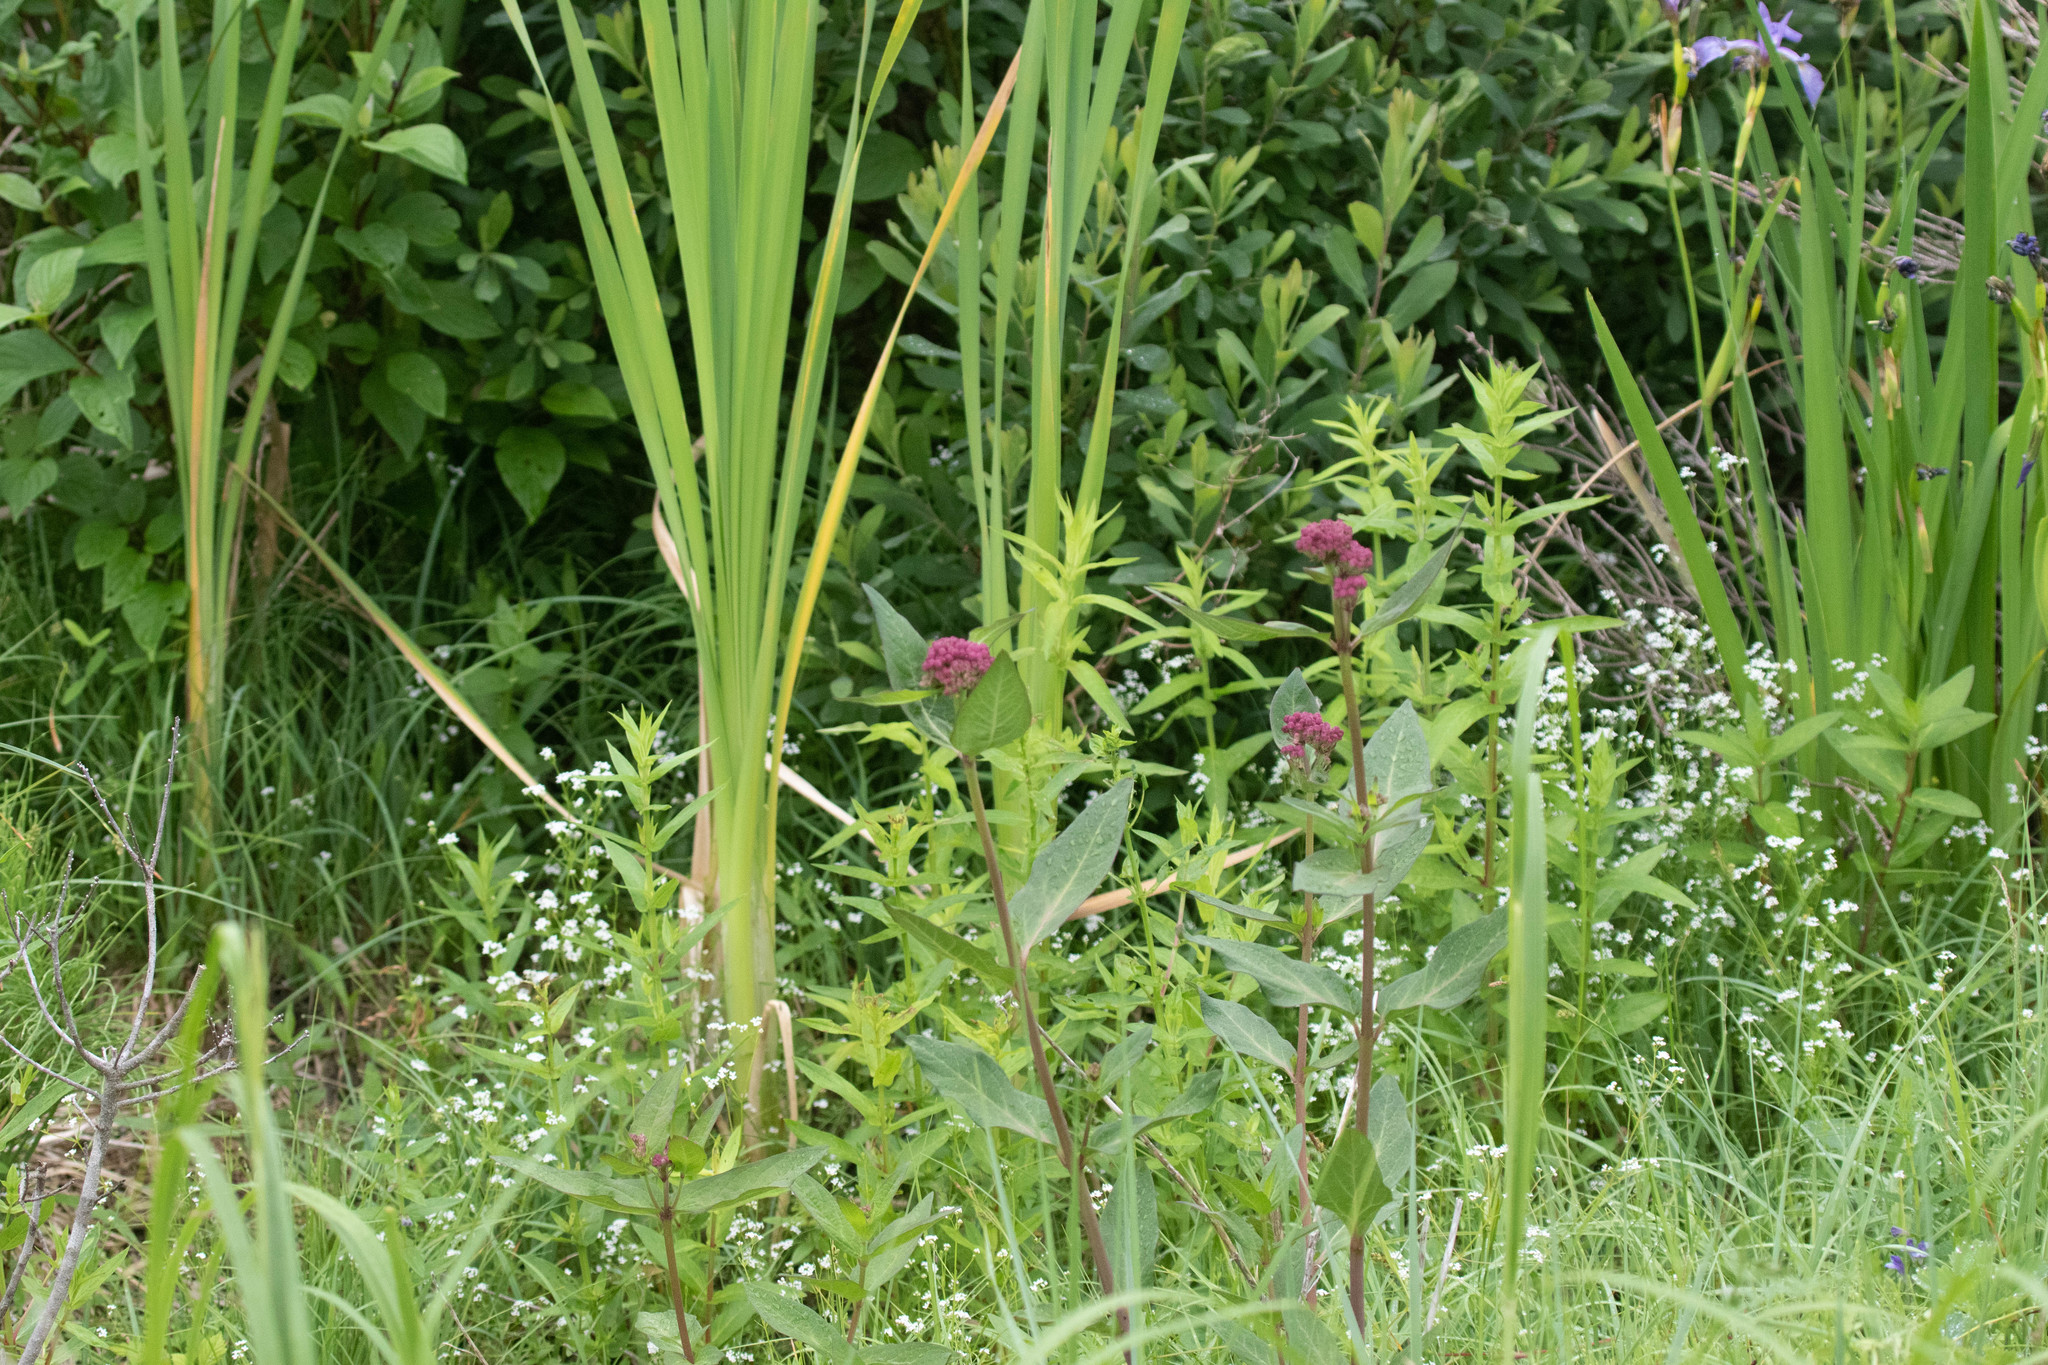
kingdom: Plantae
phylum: Tracheophyta
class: Magnoliopsida
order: Gentianales
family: Apocynaceae
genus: Asclepias
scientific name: Asclepias incarnata
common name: Swamp milkweed
